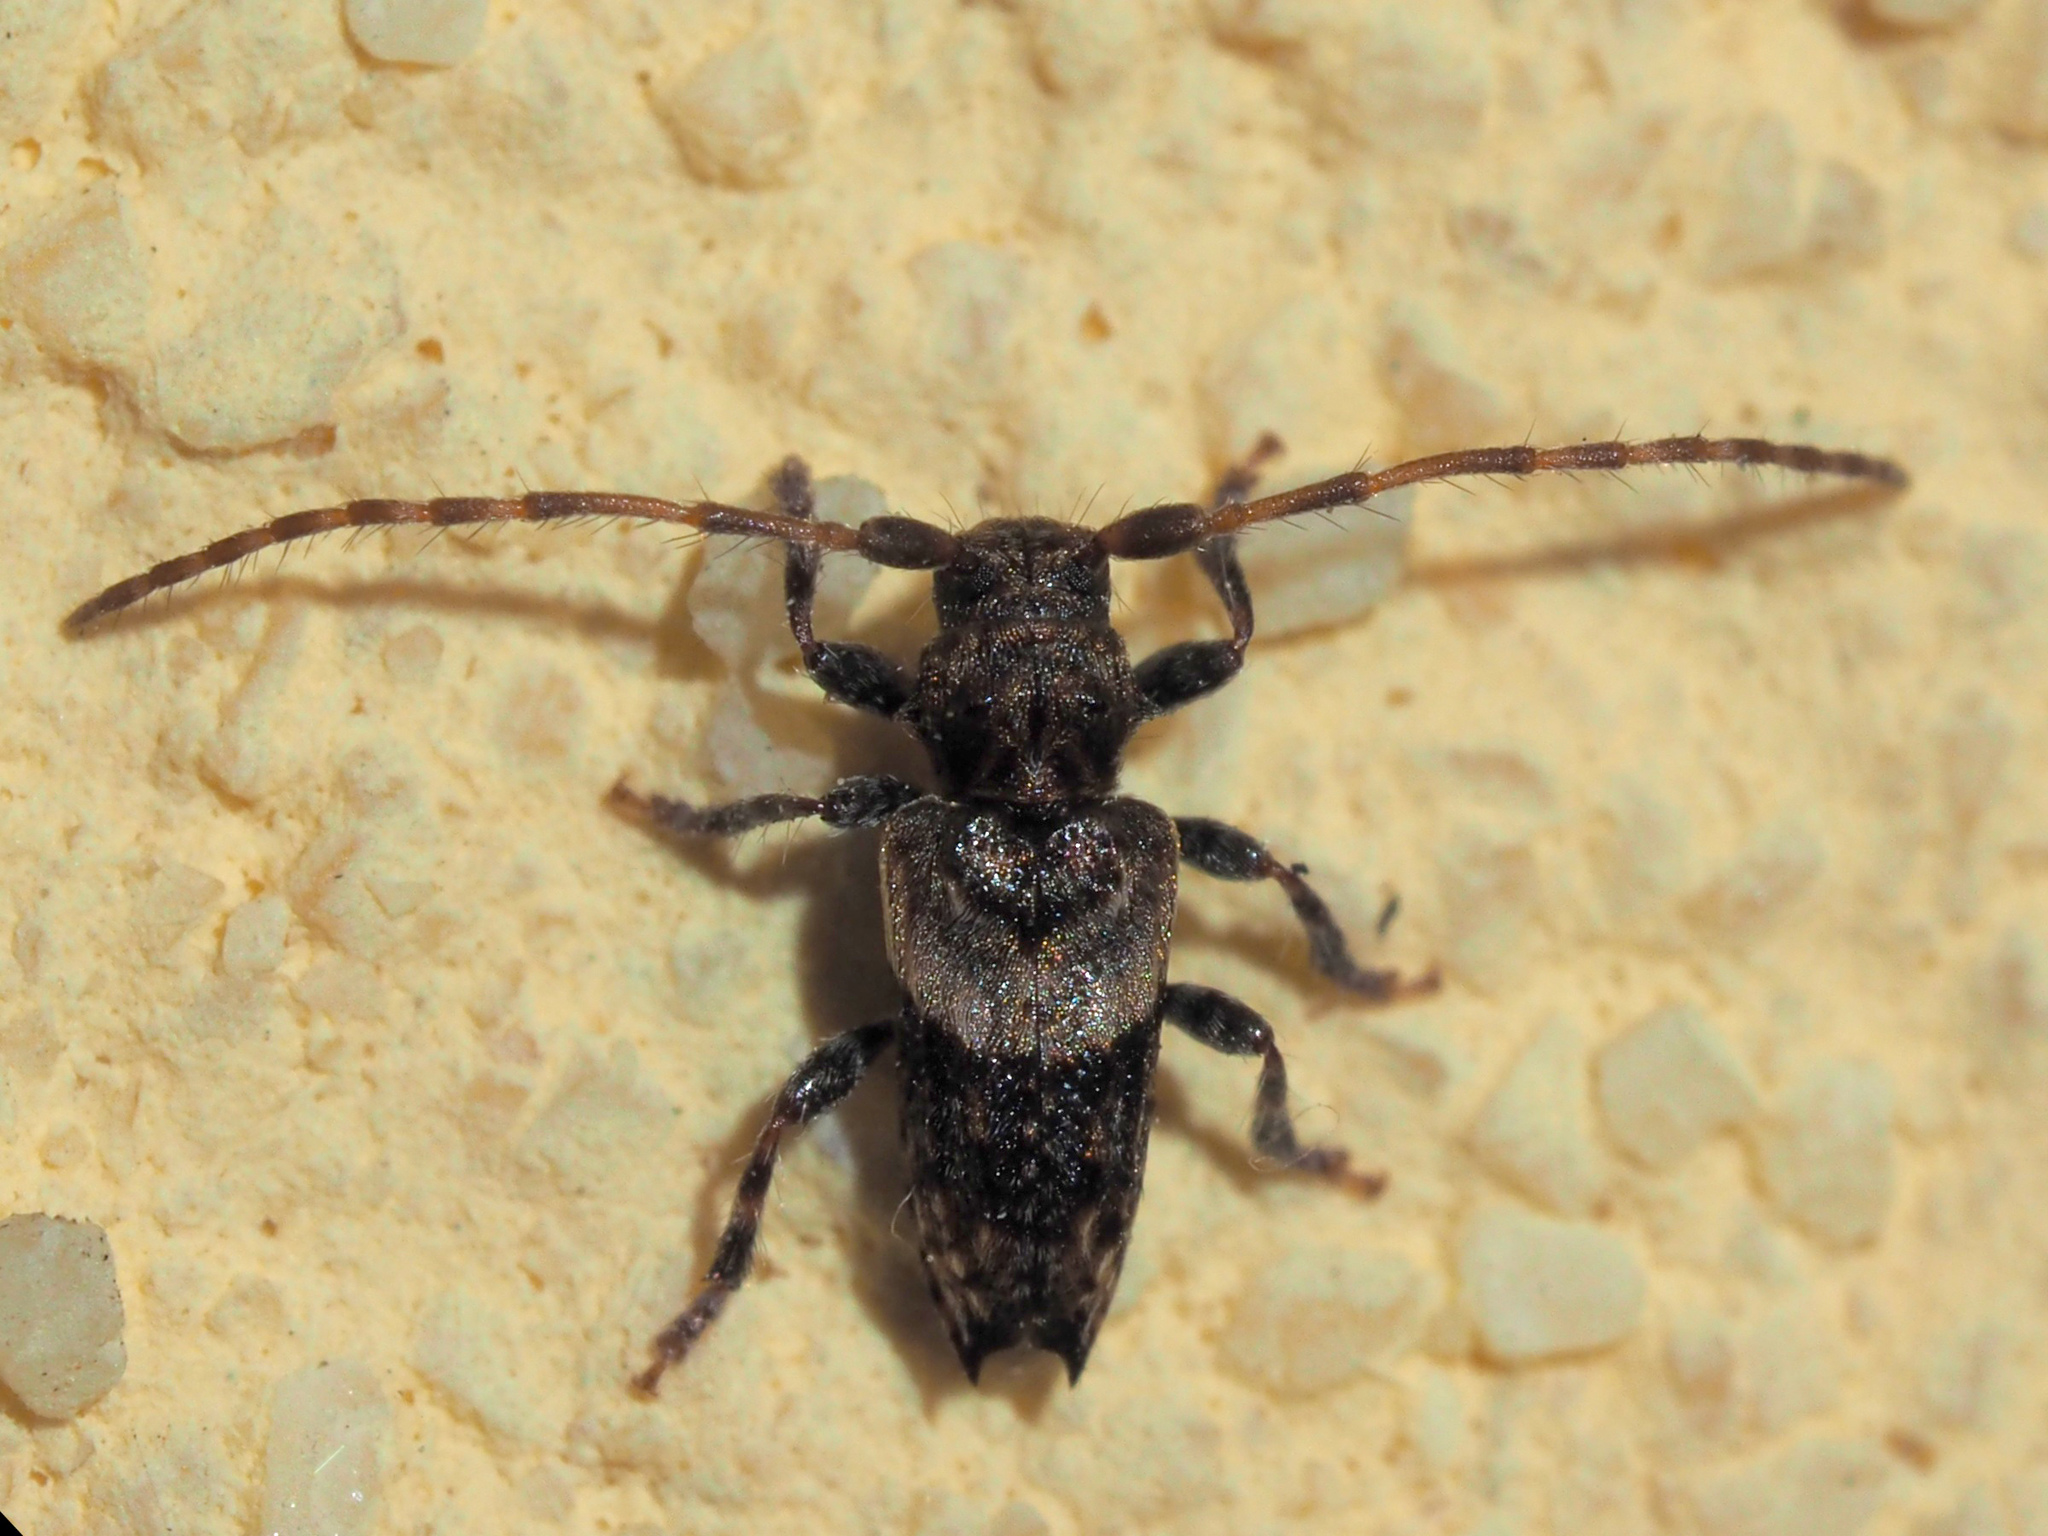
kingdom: Animalia
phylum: Arthropoda
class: Insecta
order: Coleoptera
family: Cerambycidae
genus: Pogonocherus
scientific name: Pogonocherus hispidus
